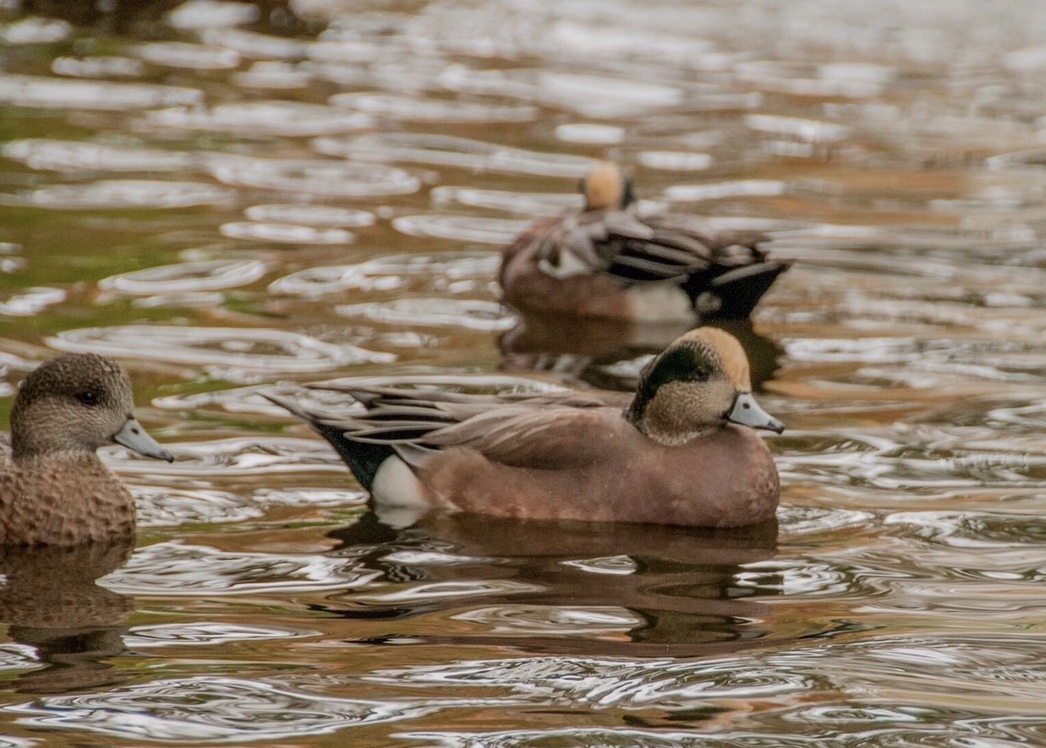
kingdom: Animalia
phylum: Chordata
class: Aves
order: Anseriformes
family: Anatidae
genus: Mareca
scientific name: Mareca americana
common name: American wigeon
